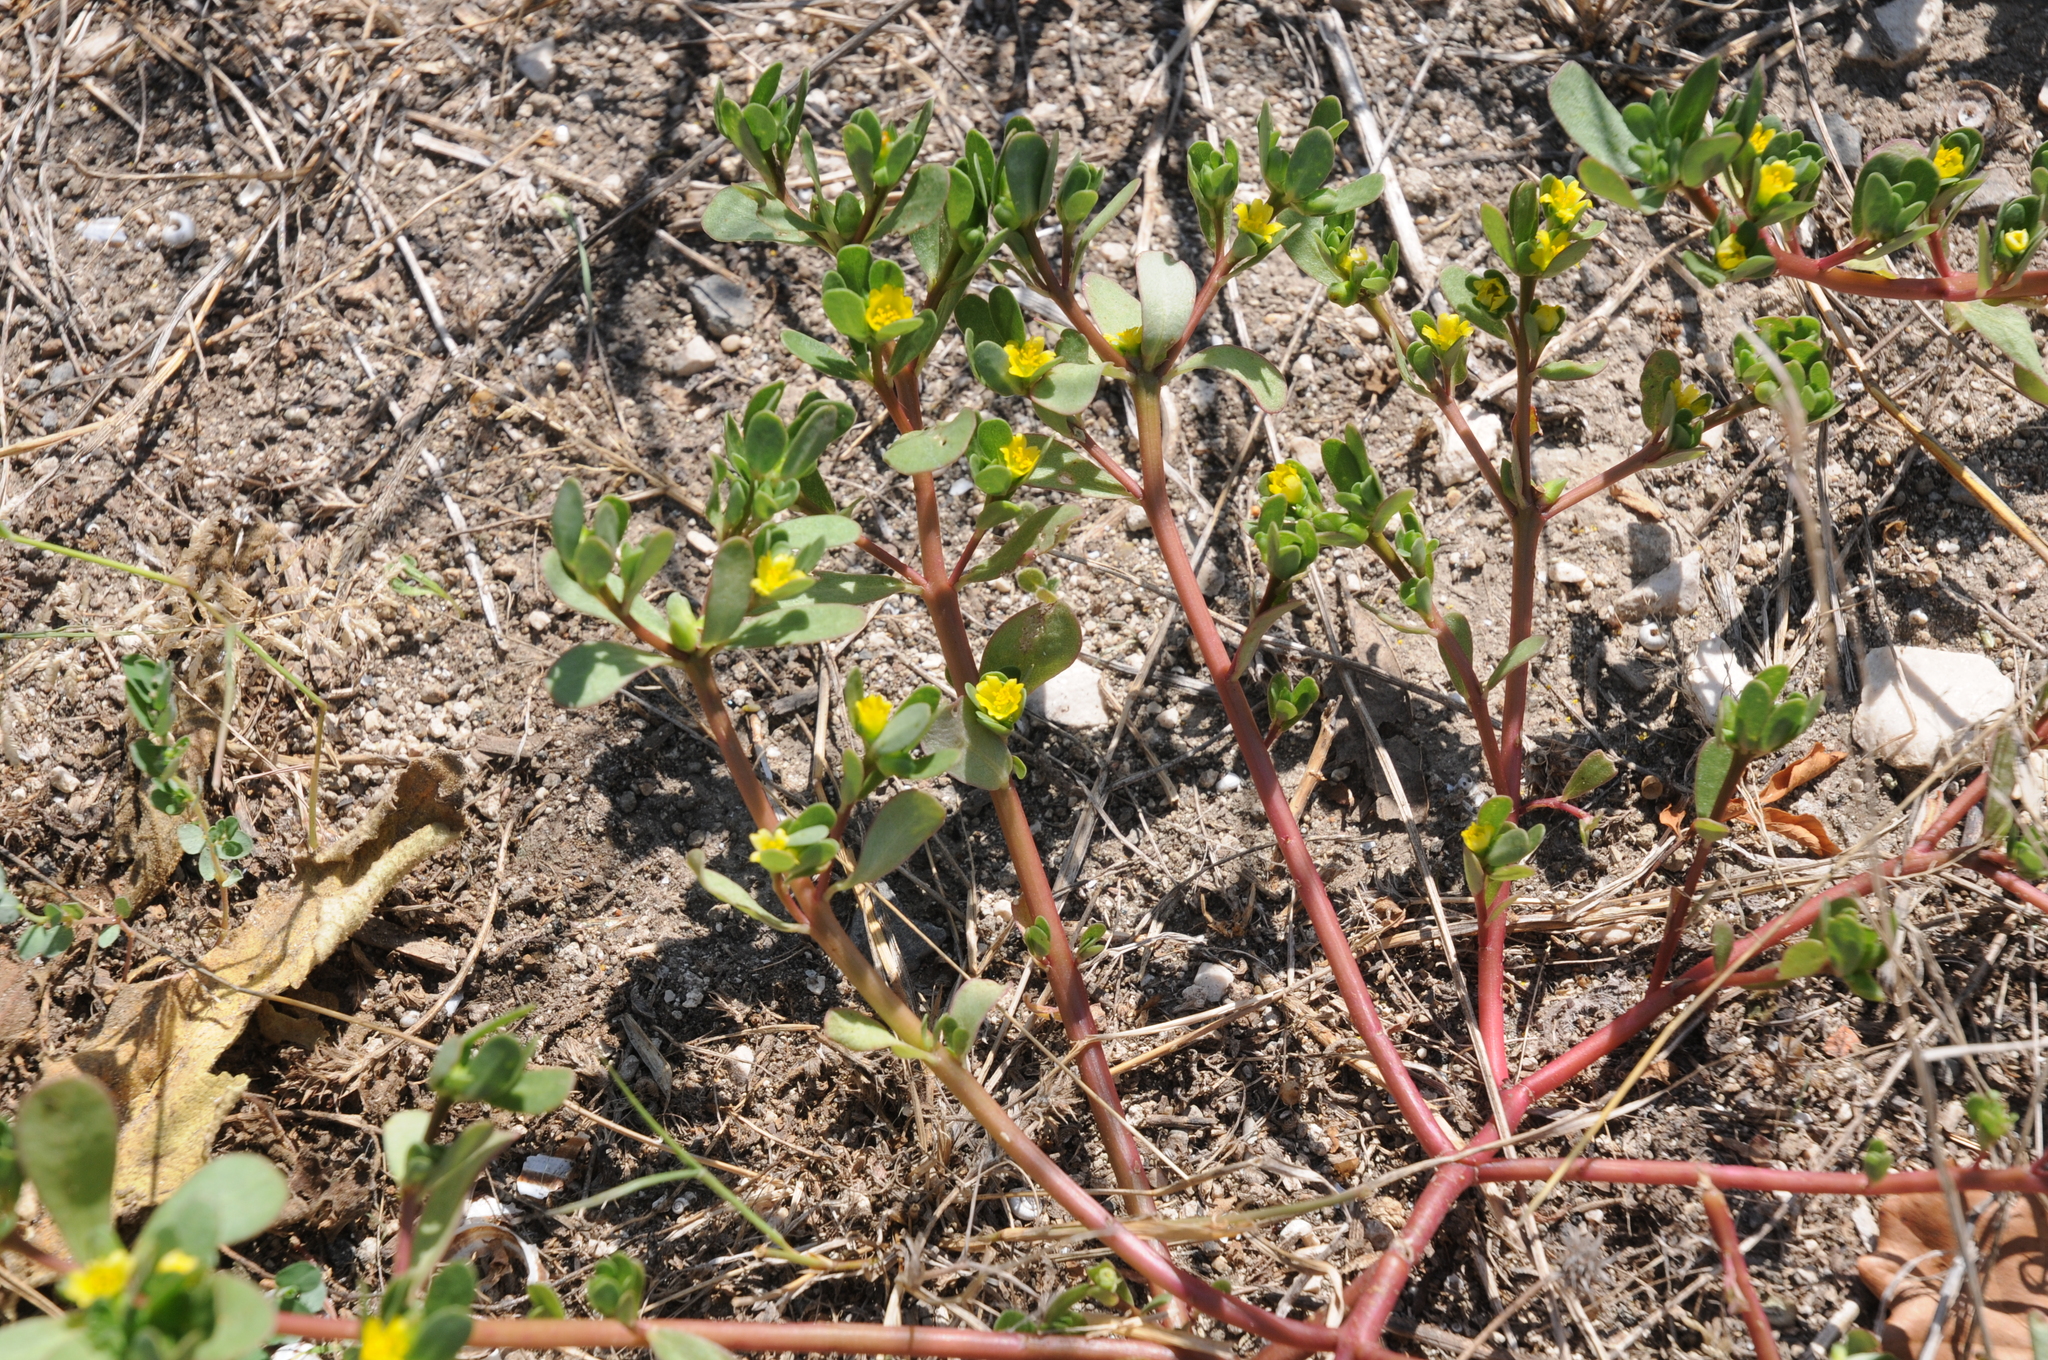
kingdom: Plantae
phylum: Tracheophyta
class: Magnoliopsida
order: Caryophyllales
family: Portulacaceae
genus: Portulaca
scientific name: Portulaca oleracea
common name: Common purslane
